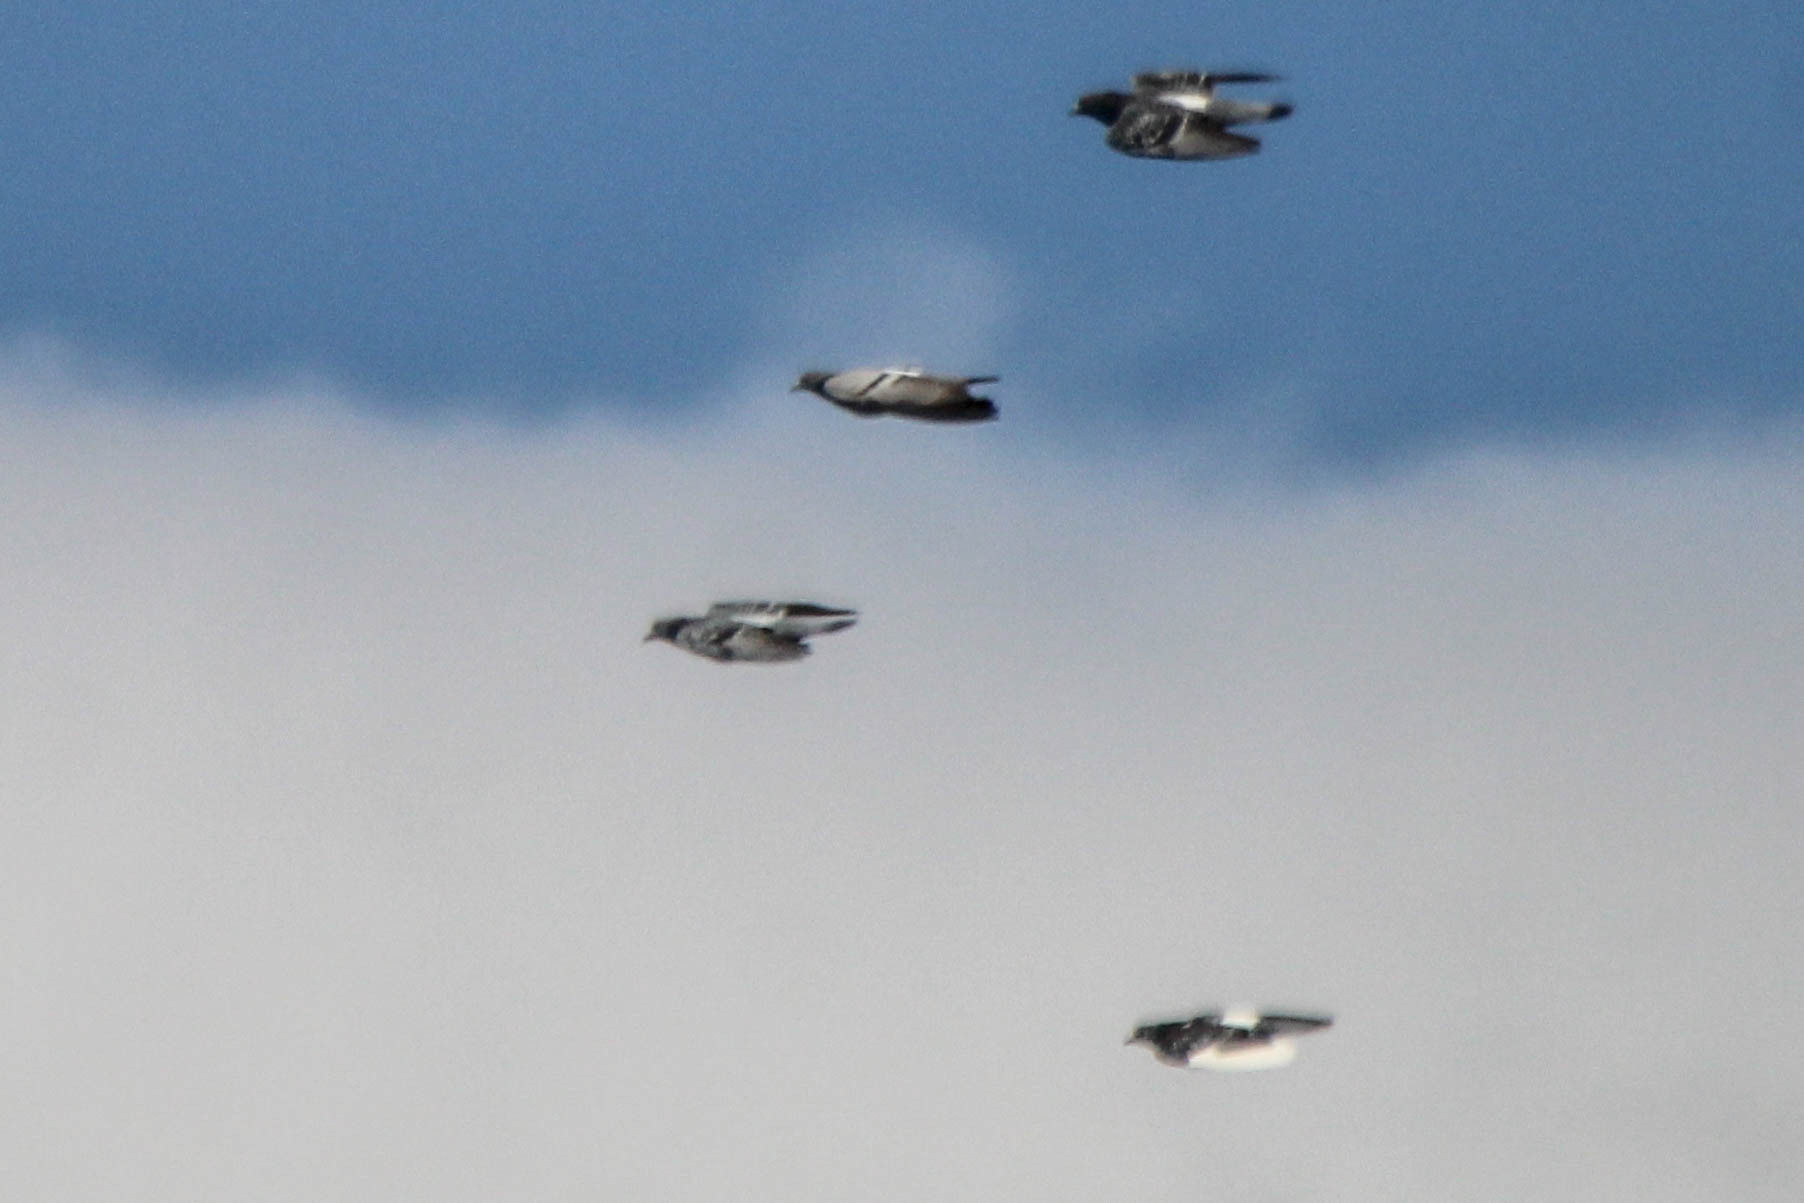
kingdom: Animalia
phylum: Chordata
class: Aves
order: Columbiformes
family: Columbidae
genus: Columba
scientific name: Columba livia
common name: Rock pigeon
